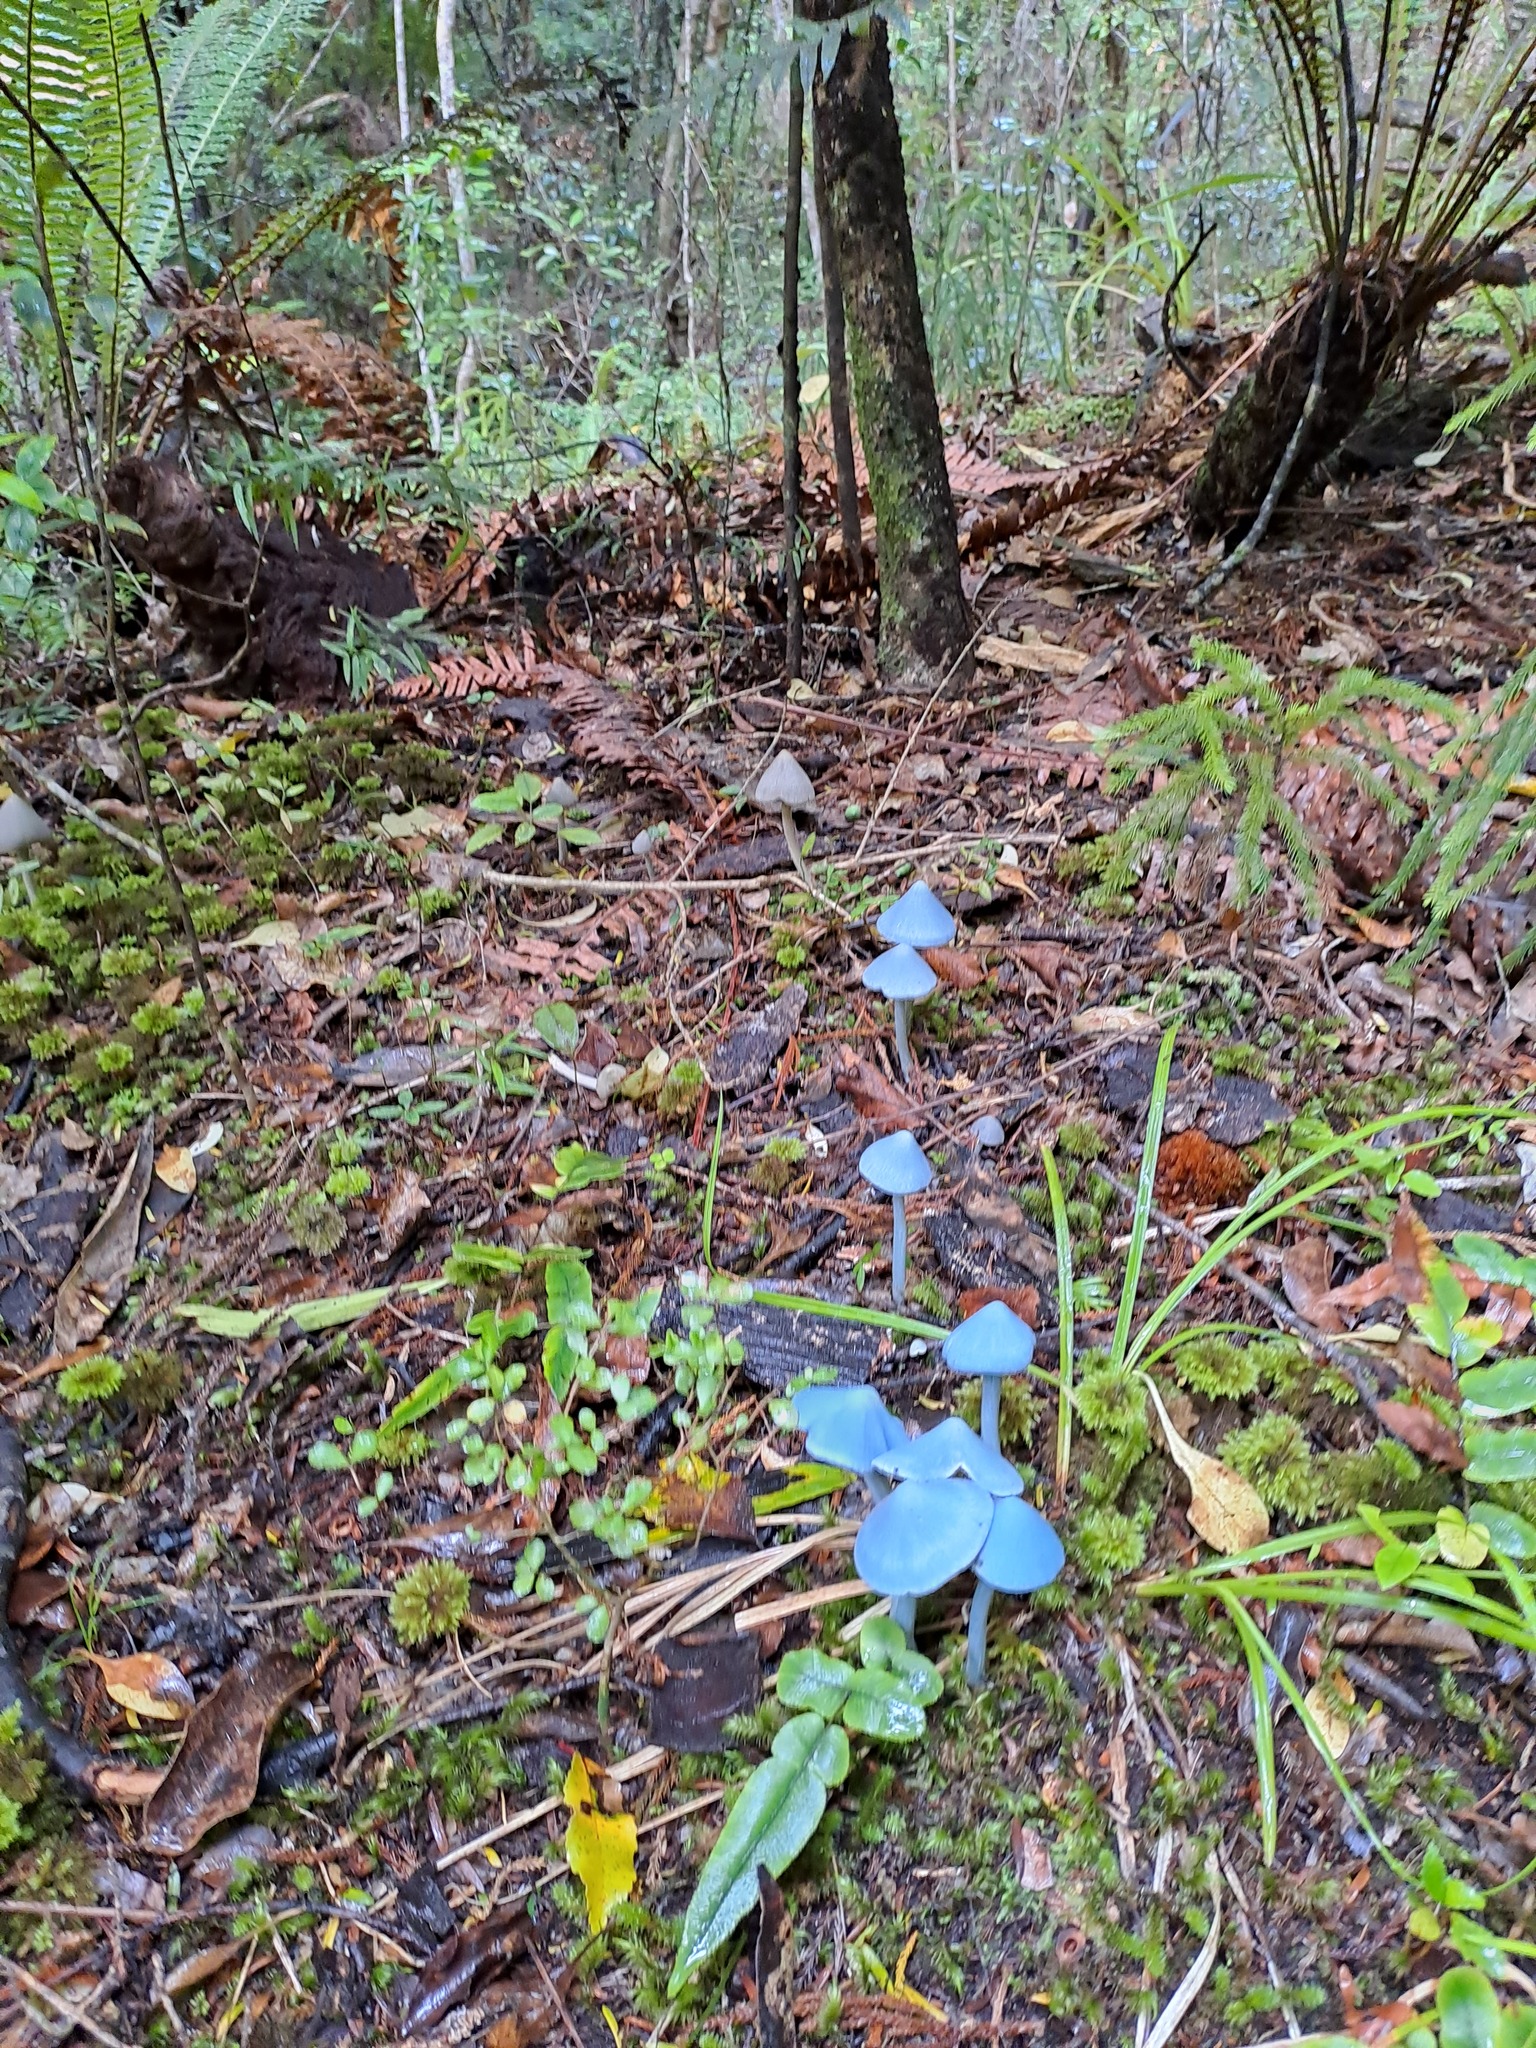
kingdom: Fungi
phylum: Basidiomycota
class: Agaricomycetes
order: Agaricales
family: Entolomataceae
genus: Entoloma
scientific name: Entoloma hochstetteri
